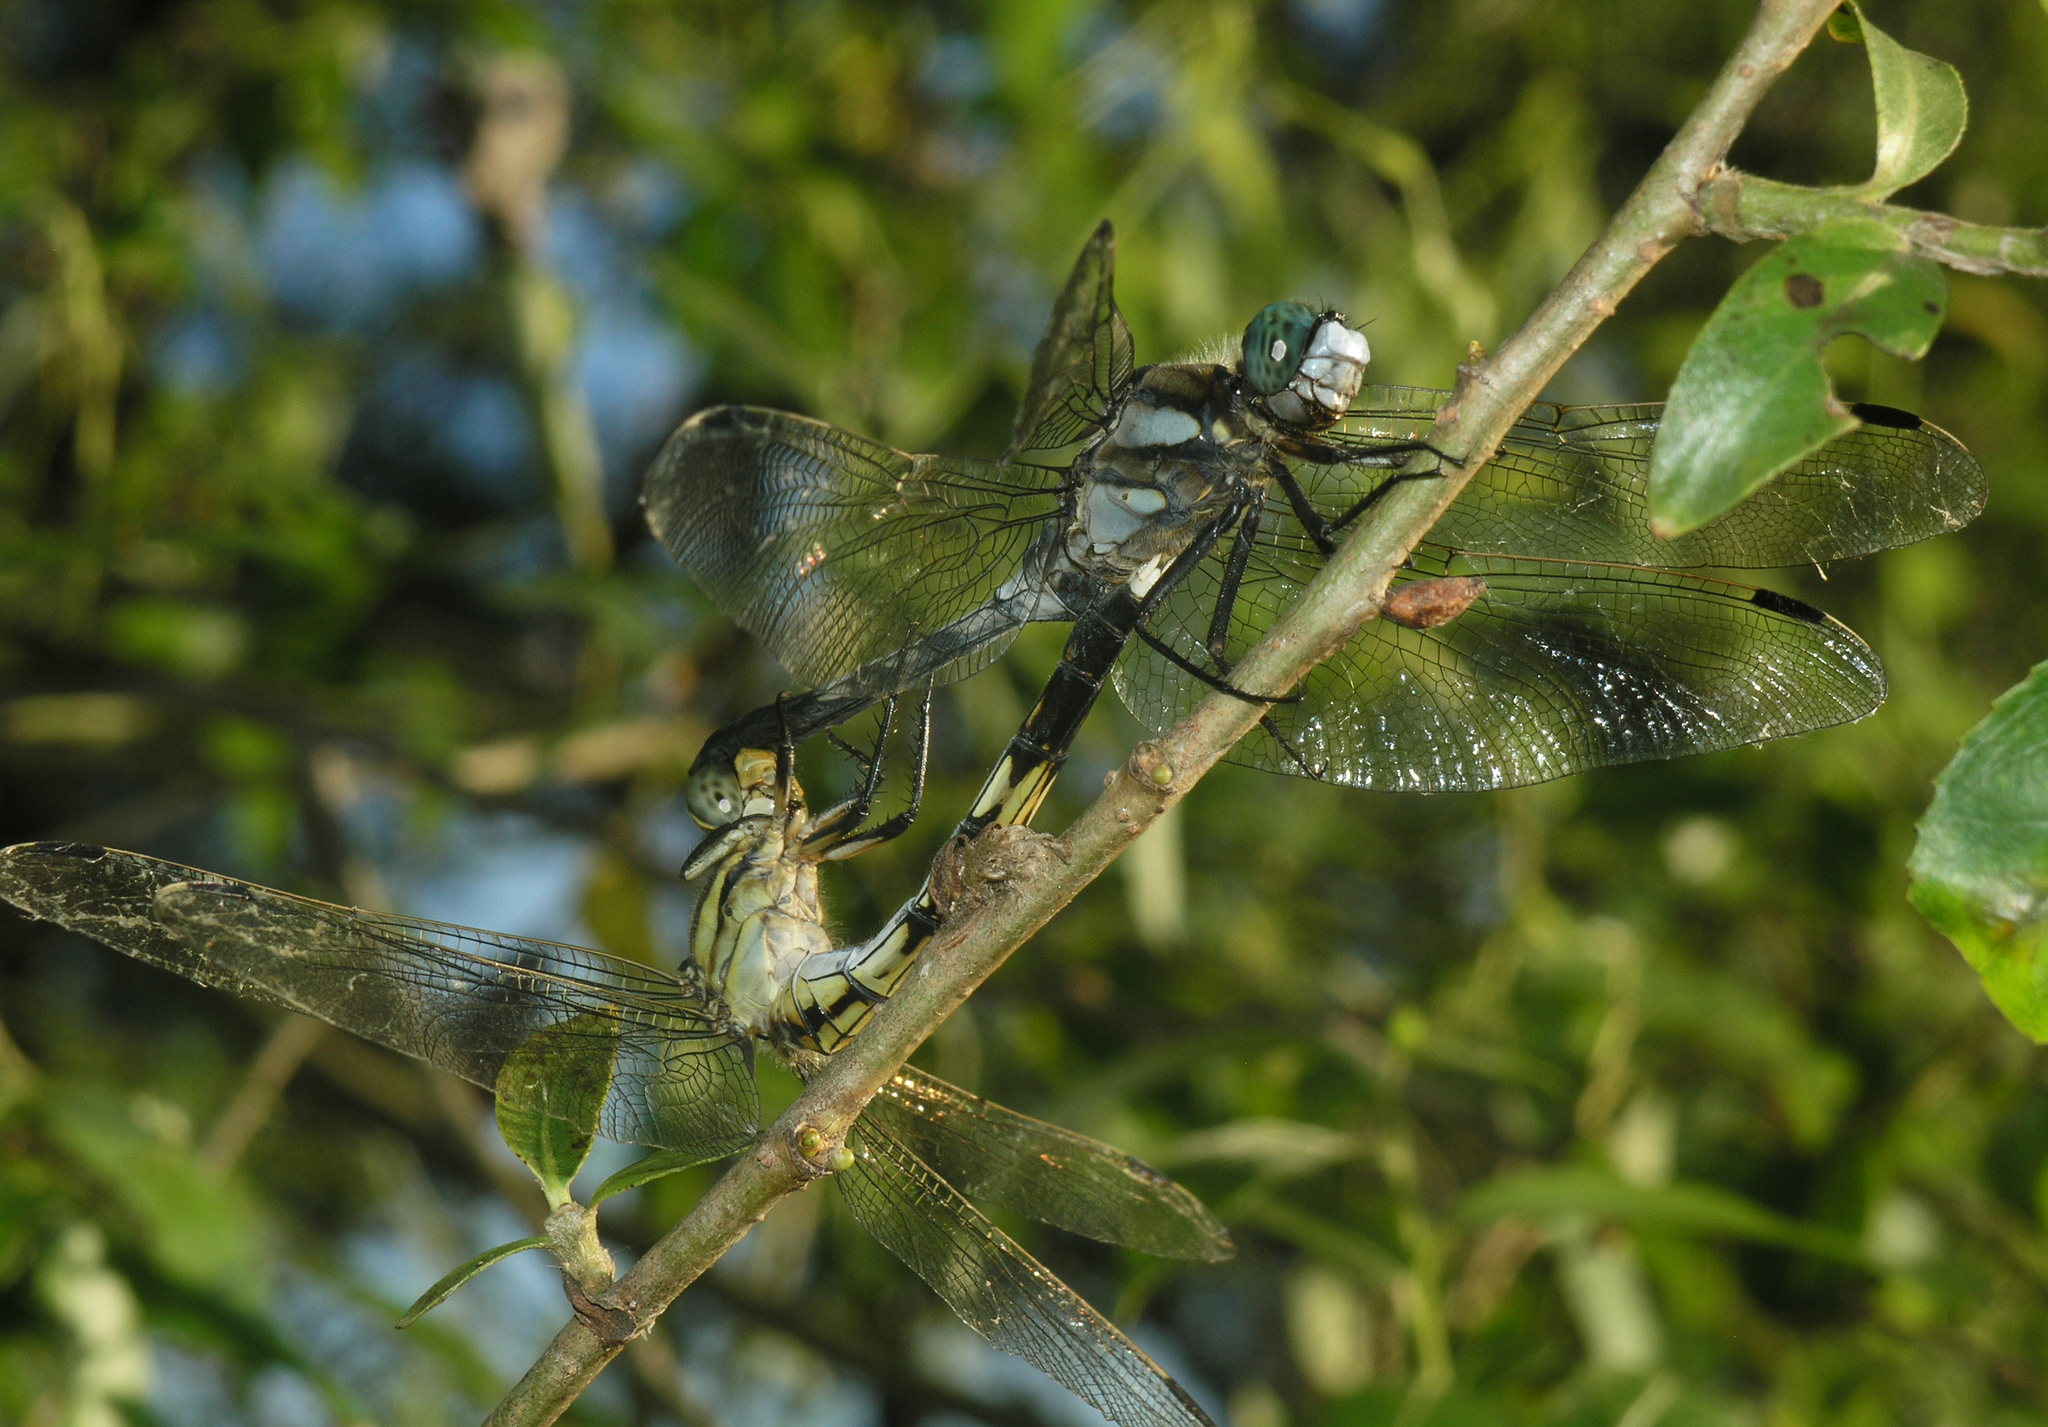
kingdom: Animalia
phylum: Arthropoda
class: Insecta
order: Odonata
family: Libellulidae
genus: Orthetrum
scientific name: Orthetrum albistylum
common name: White-tailed skimmer
